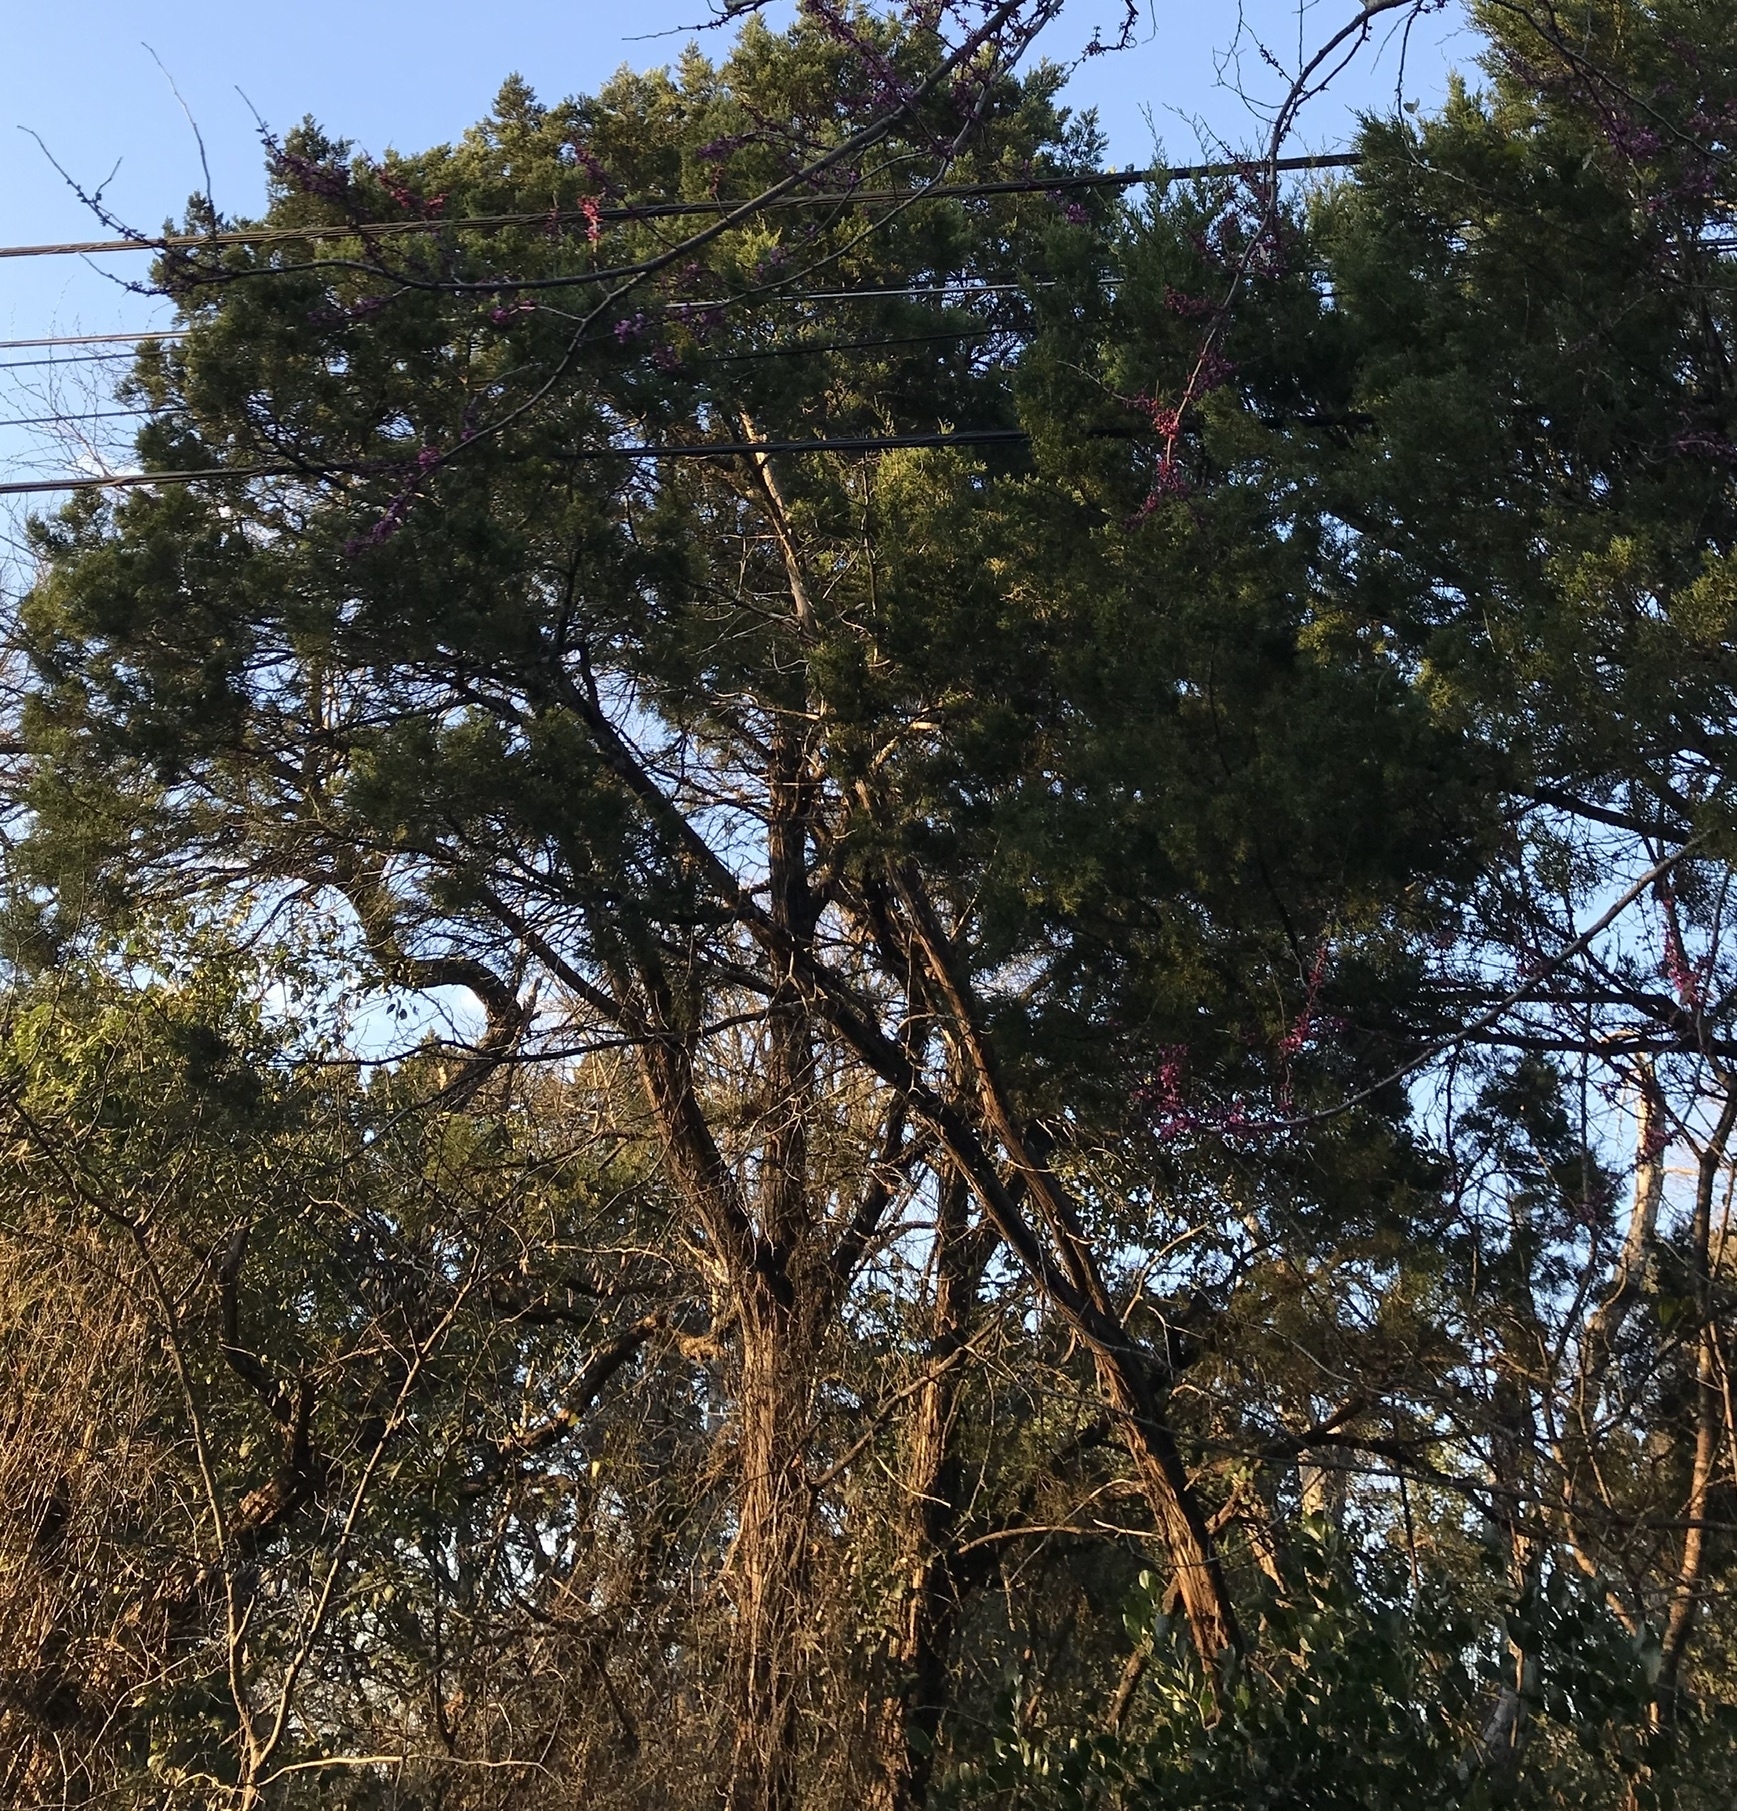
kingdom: Plantae
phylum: Tracheophyta
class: Pinopsida
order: Pinales
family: Cupressaceae
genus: Juniperus
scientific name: Juniperus ashei
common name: Mexican juniper
